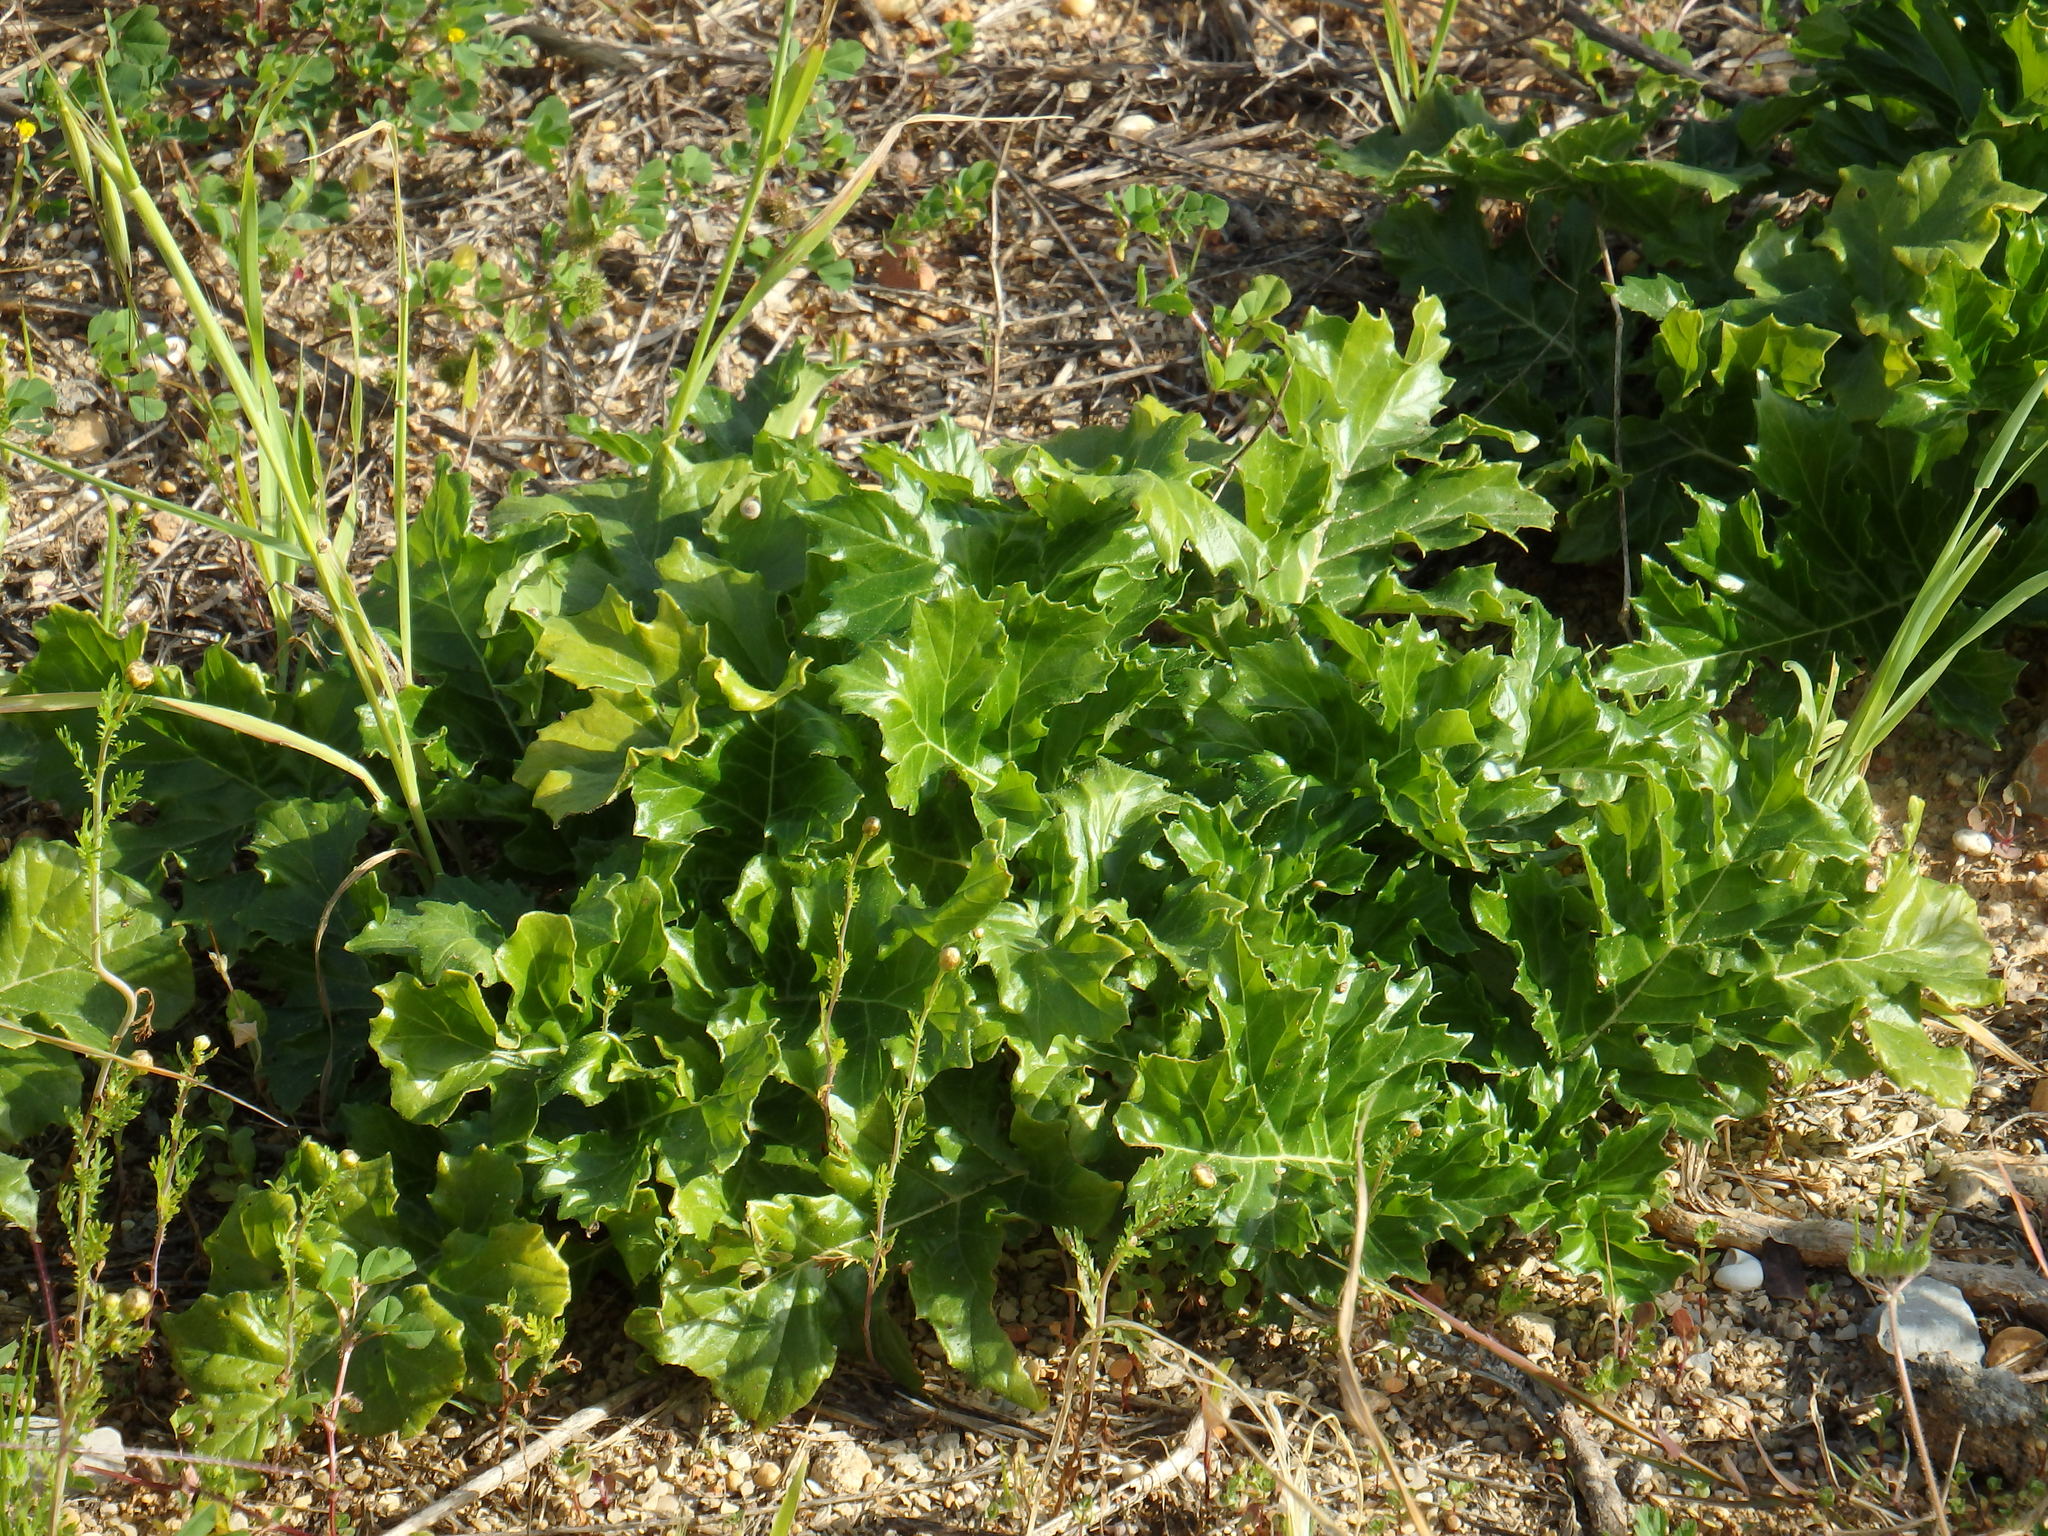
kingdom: Plantae
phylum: Tracheophyta
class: Magnoliopsida
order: Lamiales
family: Acanthaceae
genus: Acanthus
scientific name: Acanthus mollis
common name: Bear's-breech
